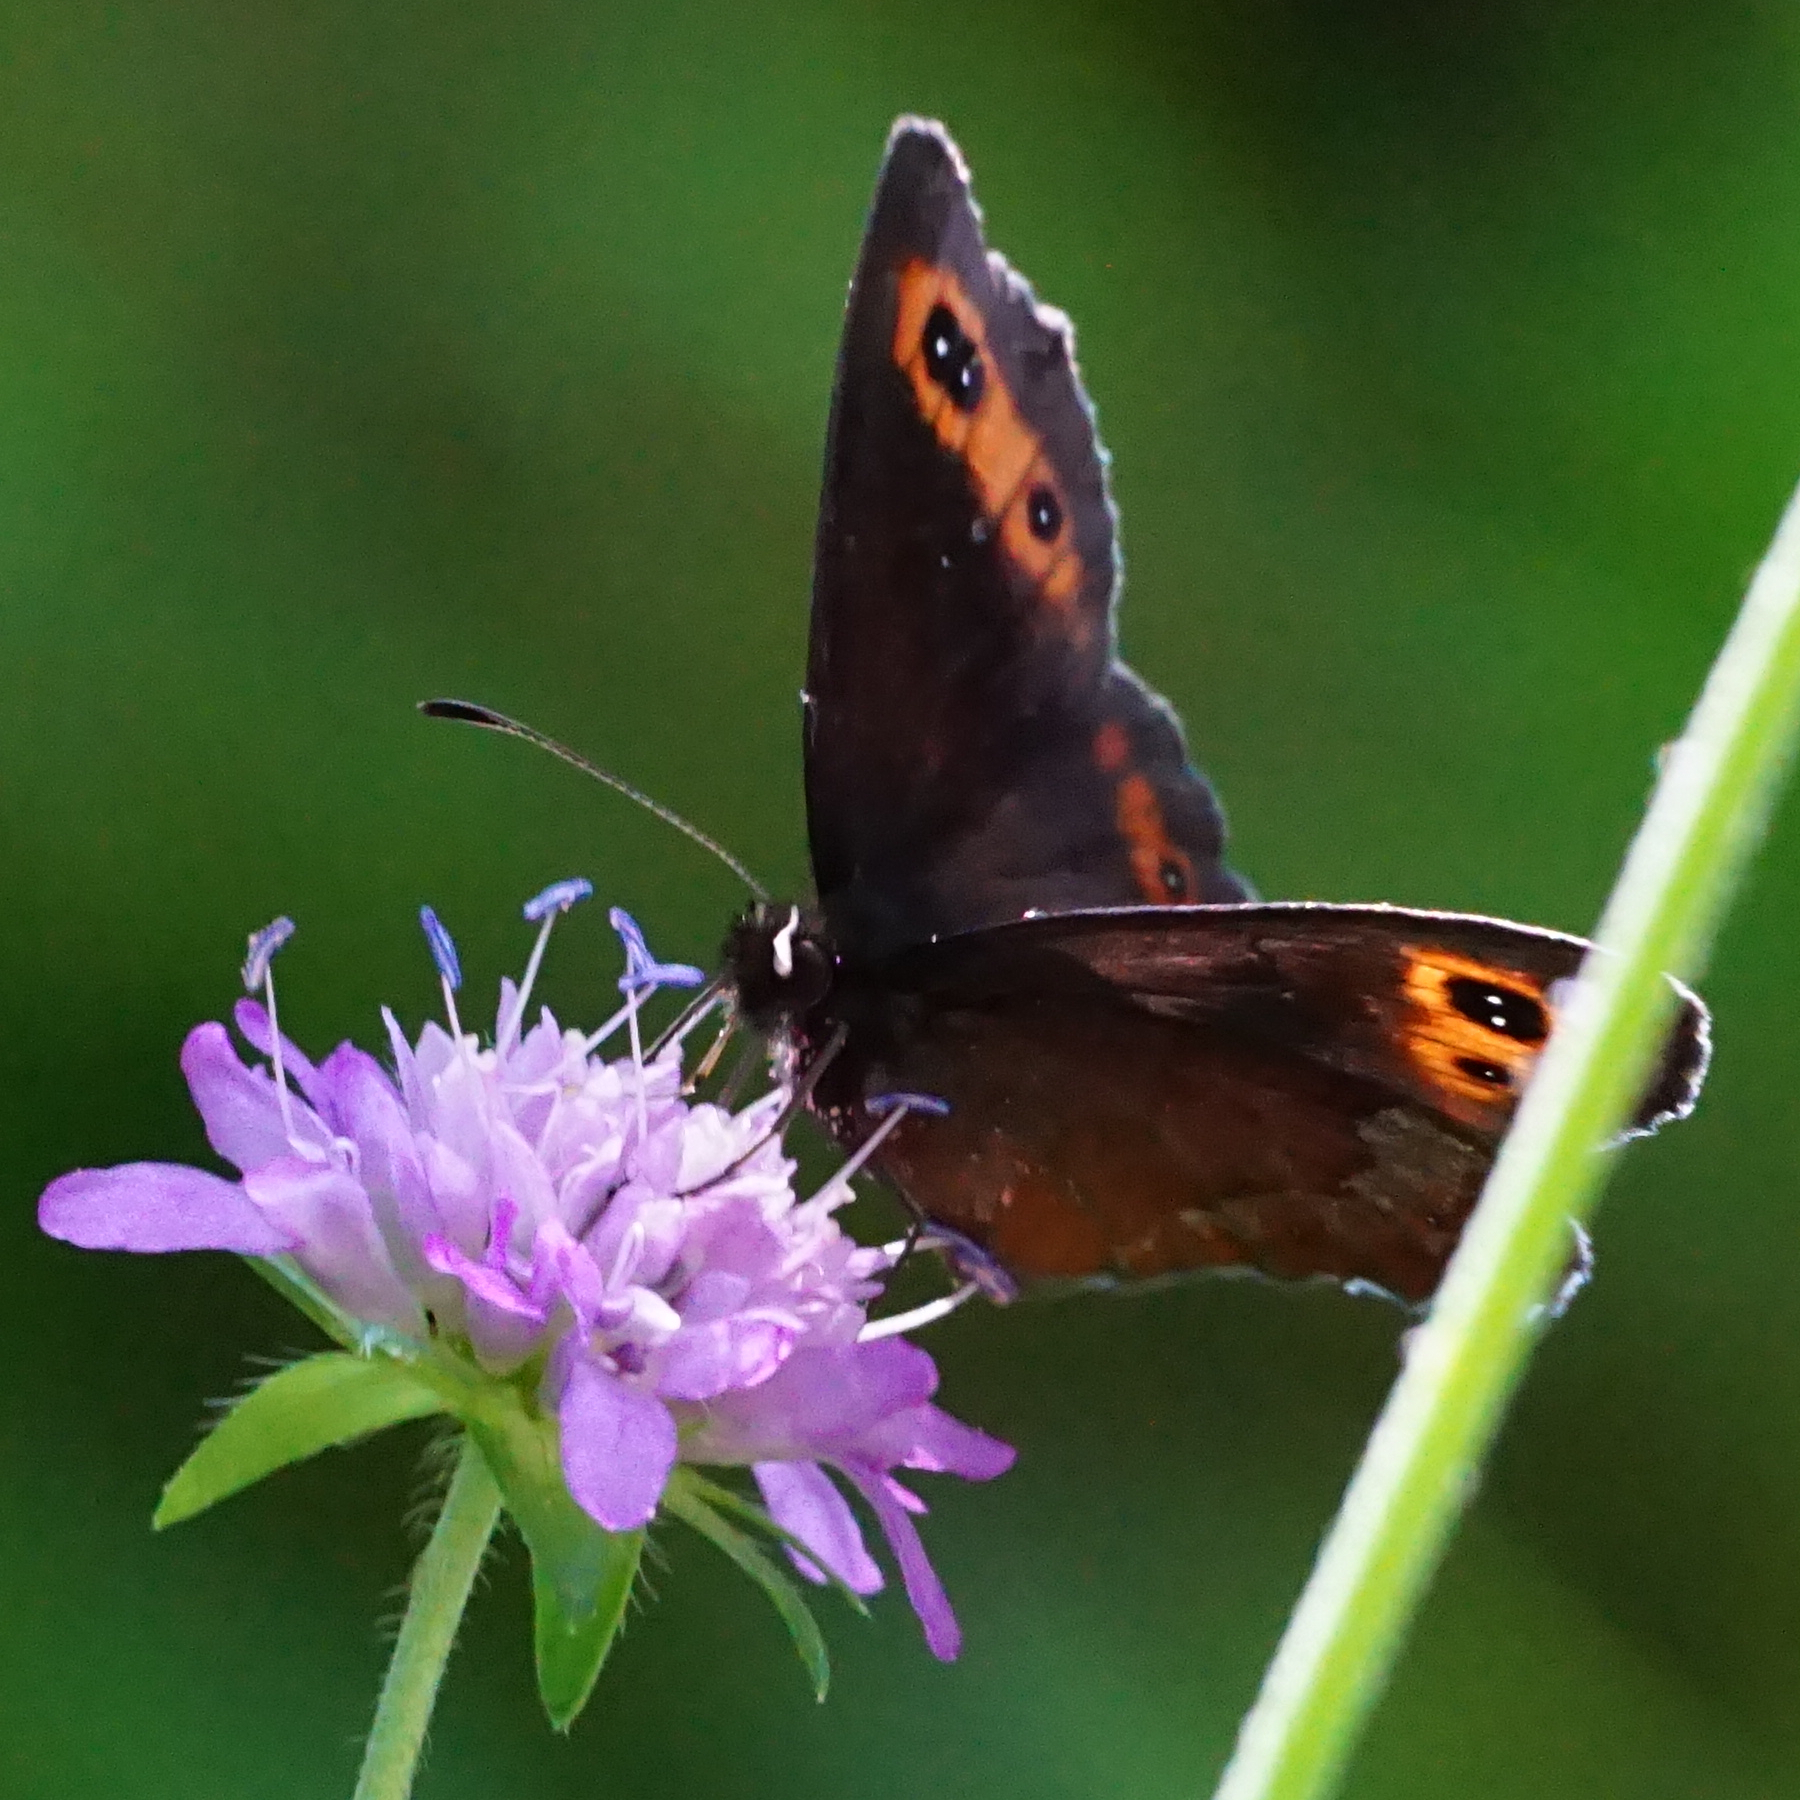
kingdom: Animalia
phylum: Arthropoda
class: Insecta
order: Lepidoptera
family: Nymphalidae
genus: Erebia
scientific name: Erebia aethiops
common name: Scotch argus
